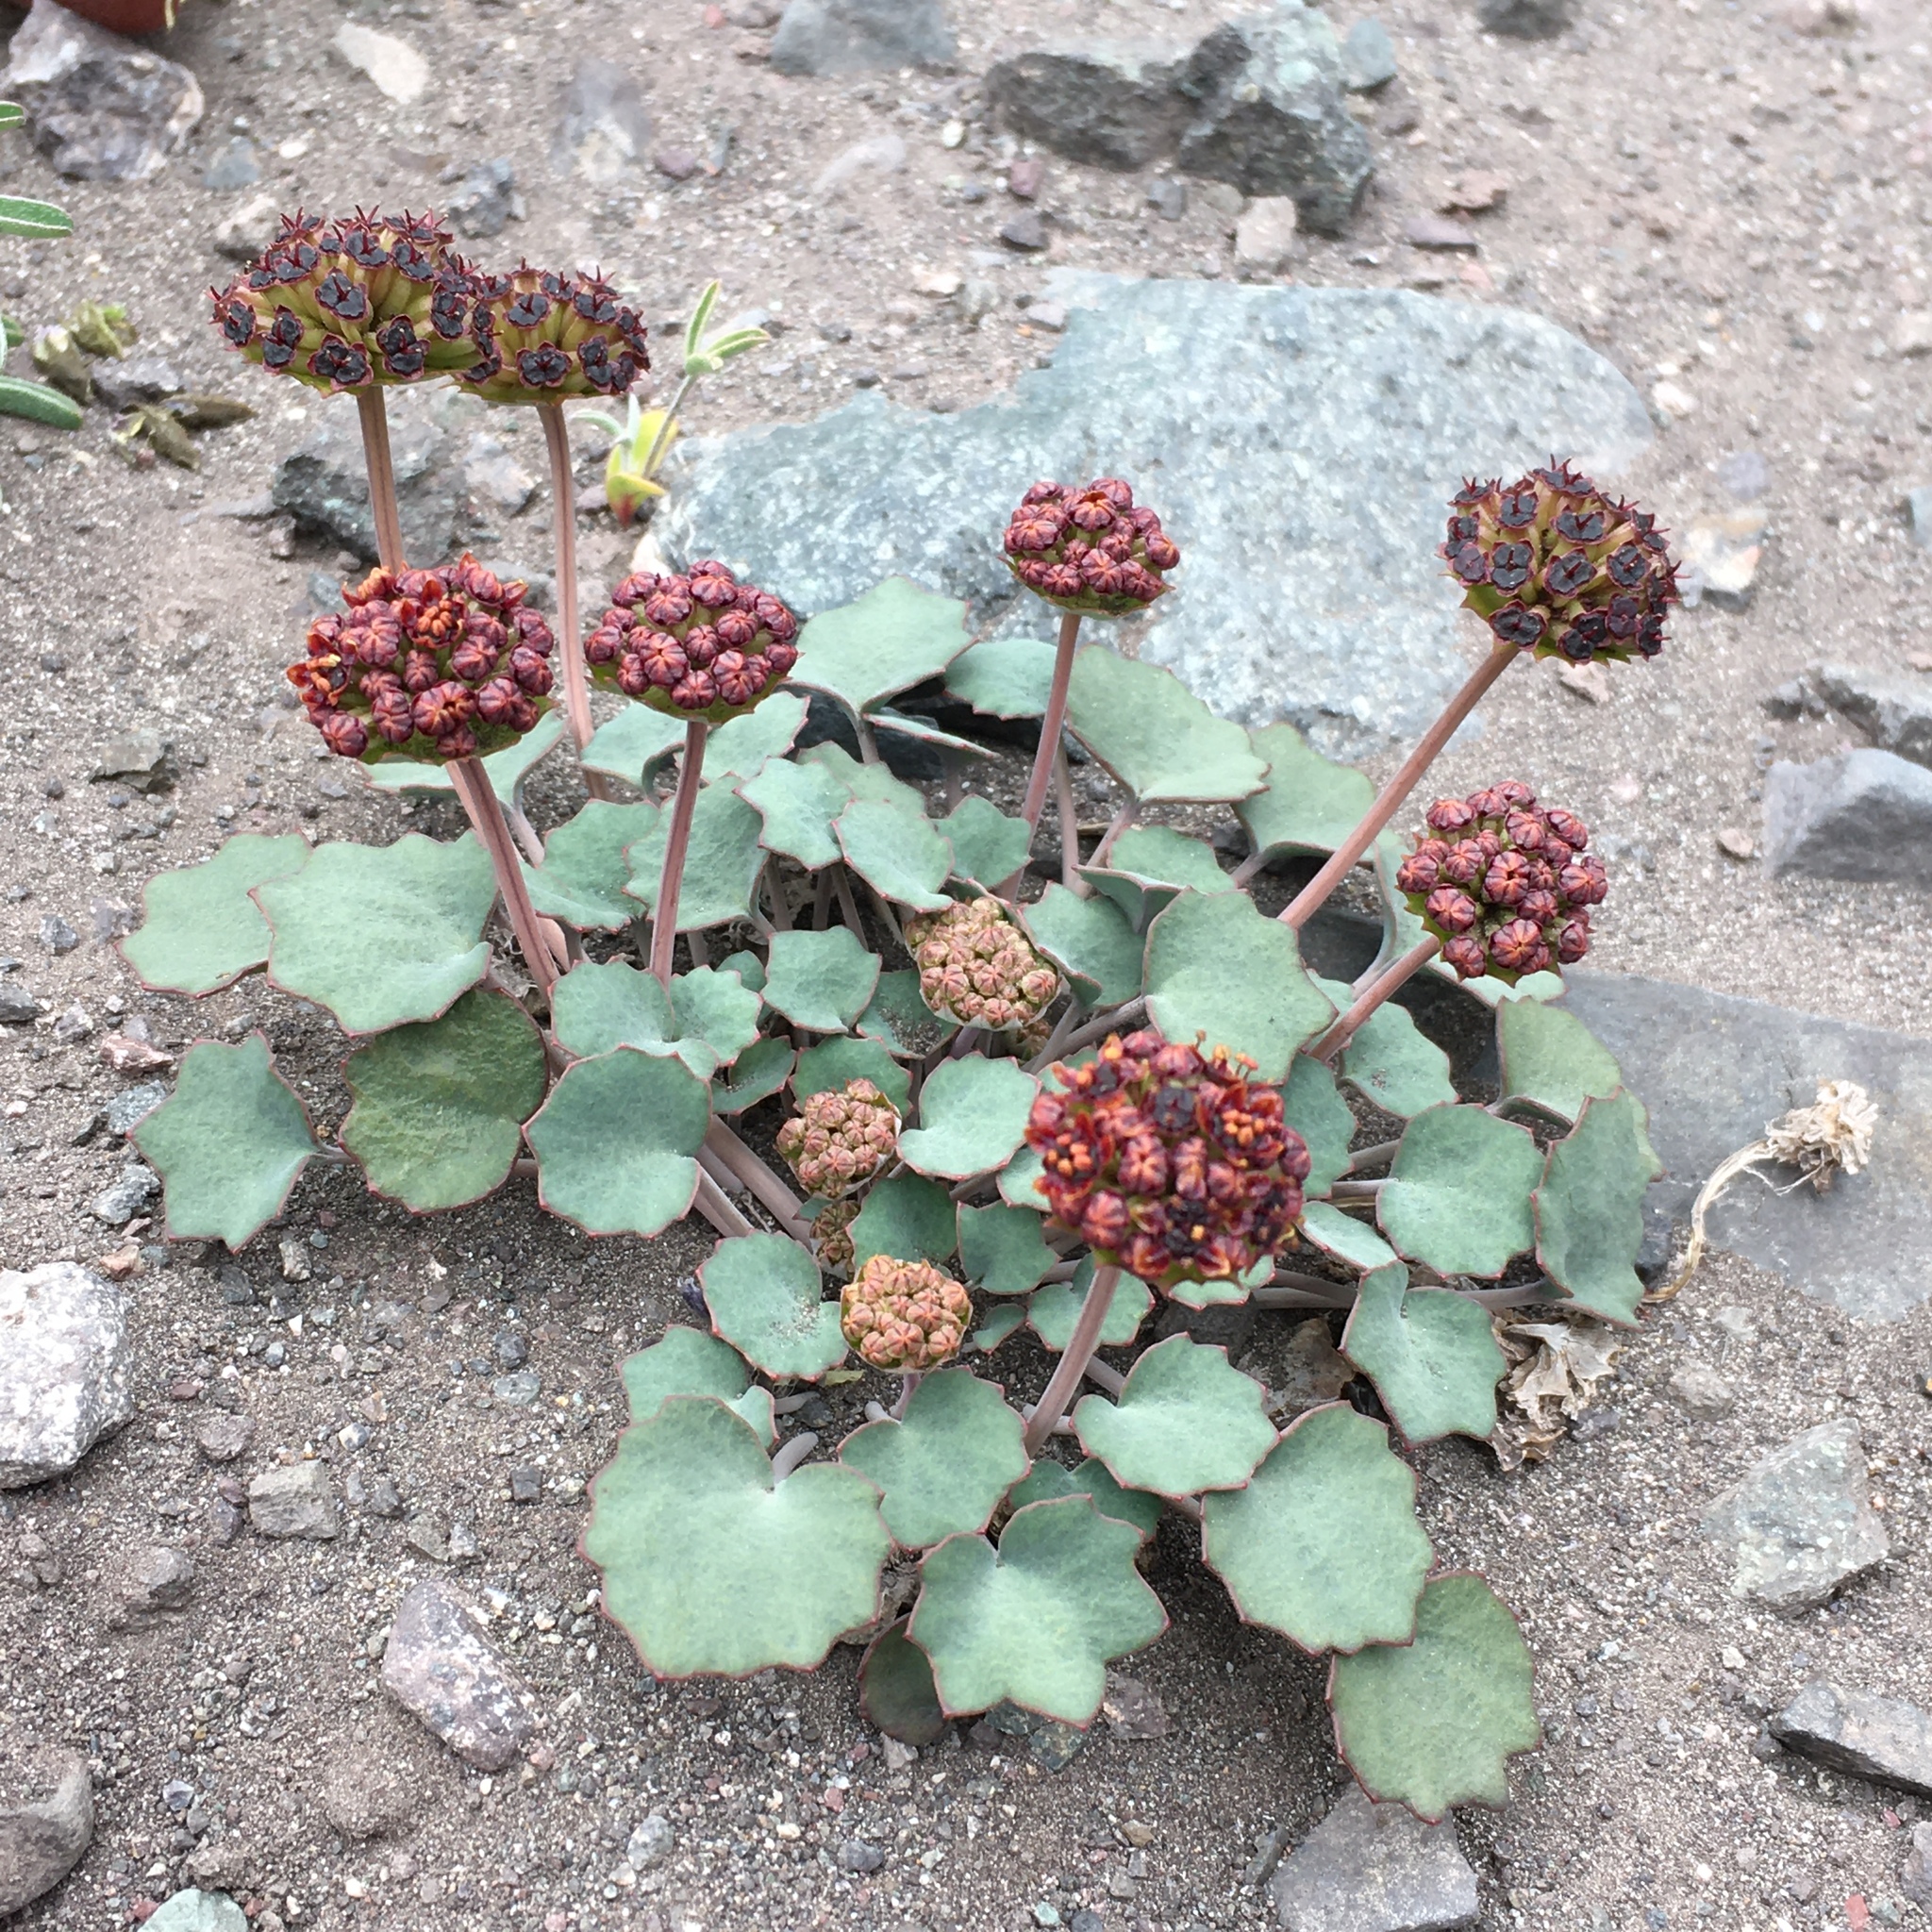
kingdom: Plantae
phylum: Tracheophyta
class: Magnoliopsida
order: Apiales
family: Apiaceae
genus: Pozoa
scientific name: Pozoa coriacea
